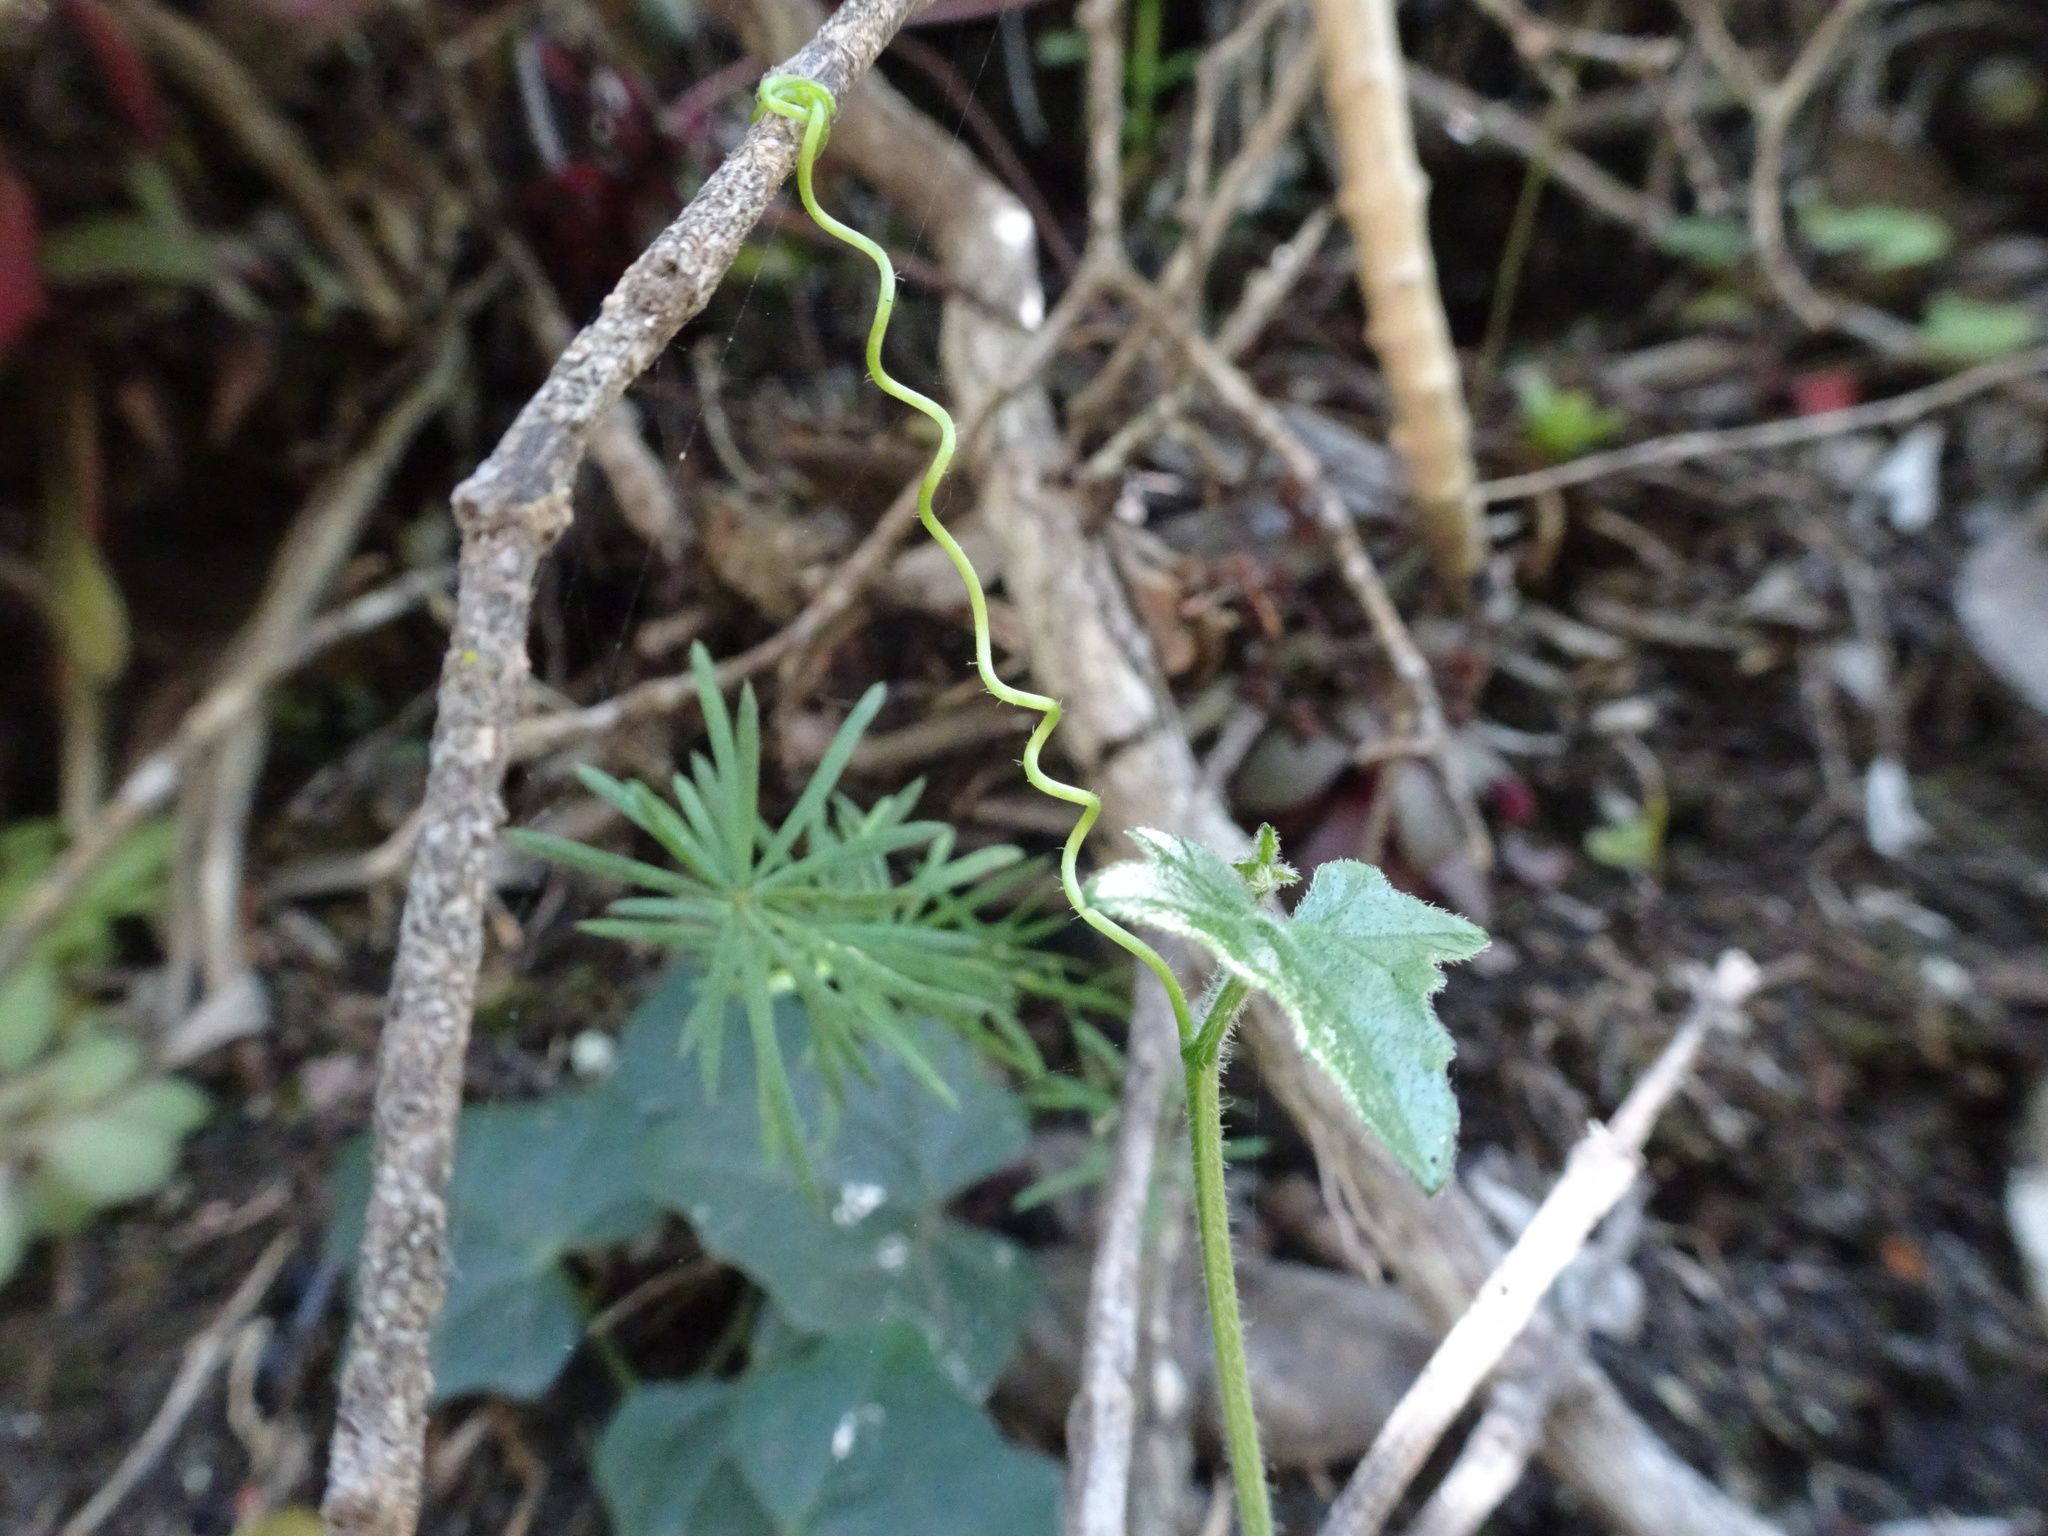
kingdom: Plantae
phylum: Tracheophyta
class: Magnoliopsida
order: Cucurbitales
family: Cucurbitaceae
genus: Kedrostis
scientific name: Kedrostis nana
